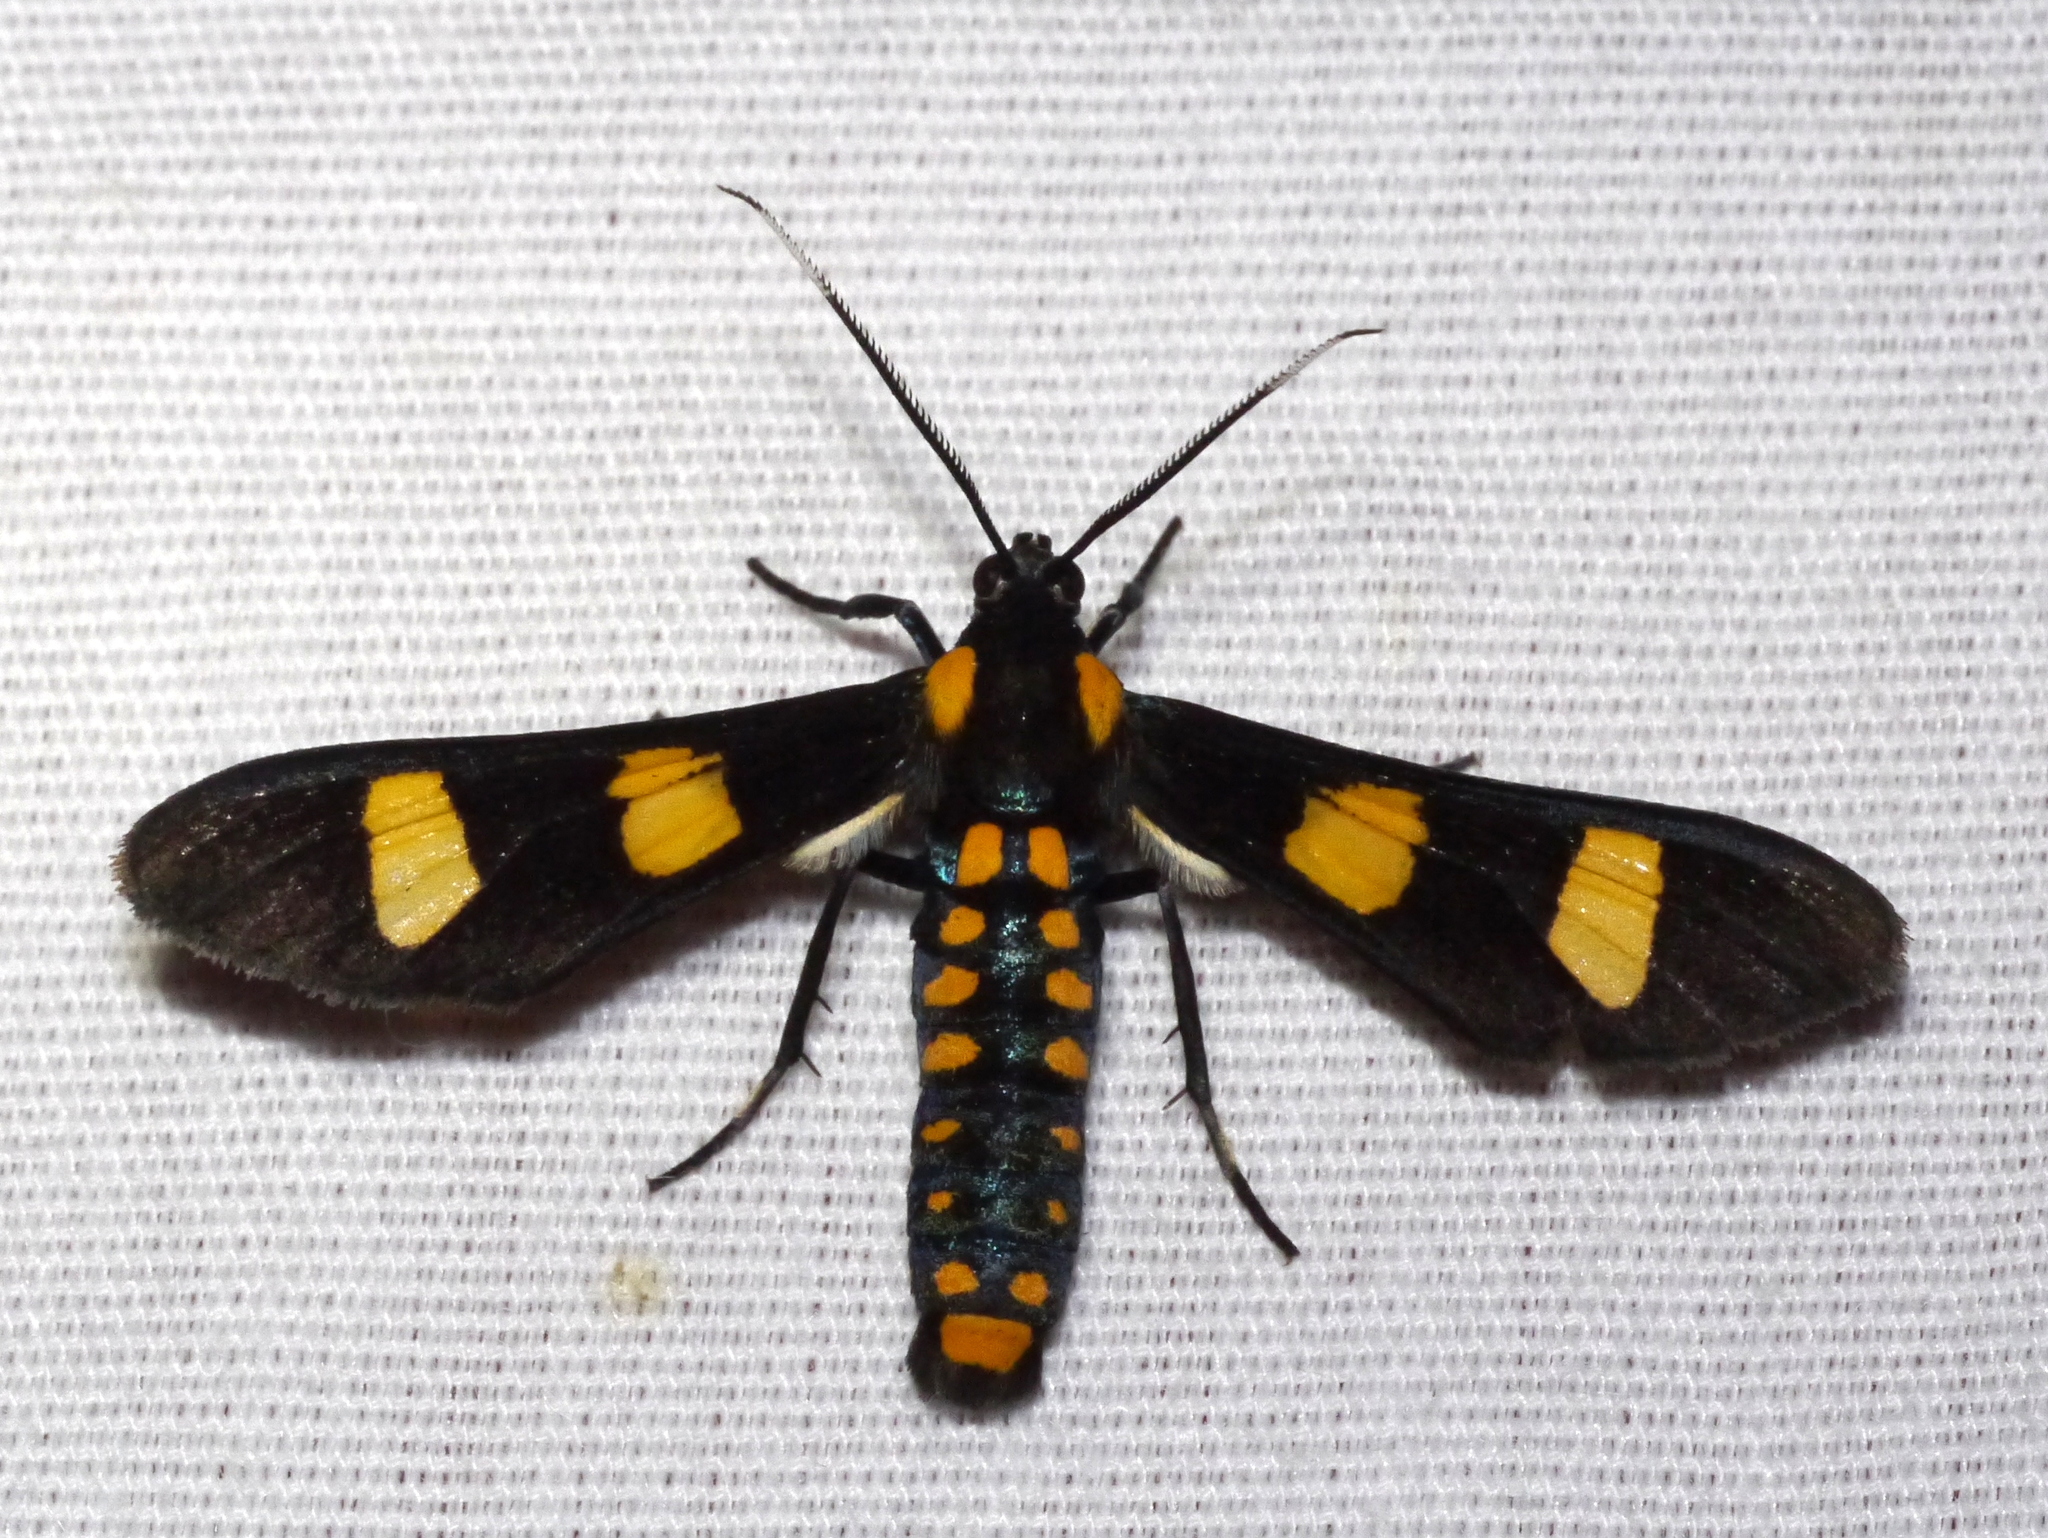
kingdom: Animalia
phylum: Arthropoda
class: Insecta
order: Lepidoptera
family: Erebidae
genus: Phoenicoprocta
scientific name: Phoenicoprocta hampsonii
